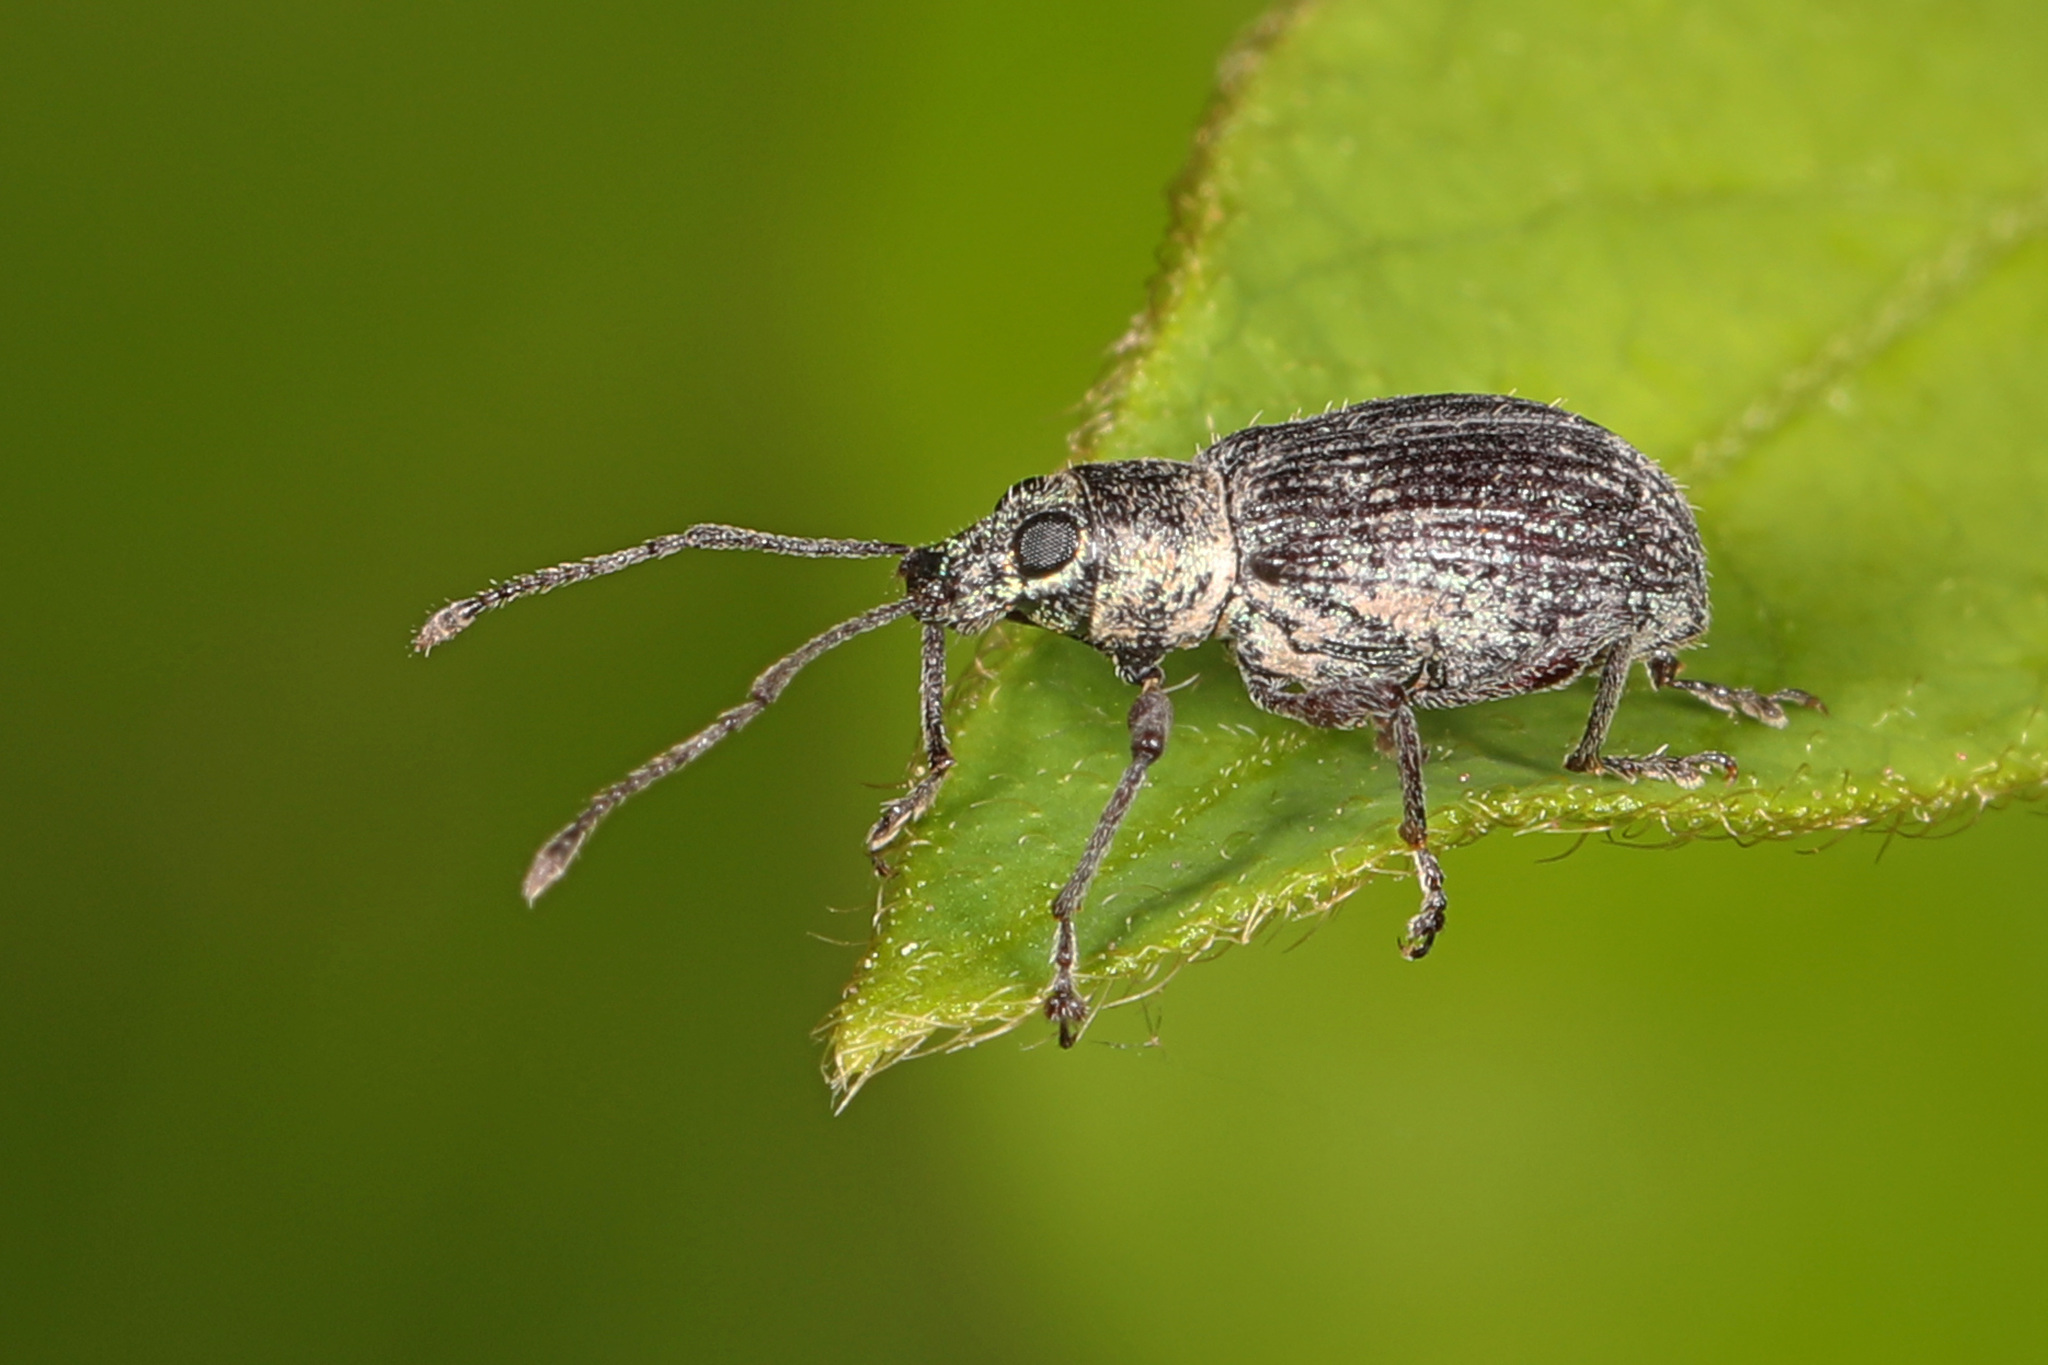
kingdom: Animalia
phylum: Arthropoda
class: Insecta
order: Coleoptera
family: Curculionidae
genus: Cyrtepistomus
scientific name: Cyrtepistomus castaneus
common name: Weevil
